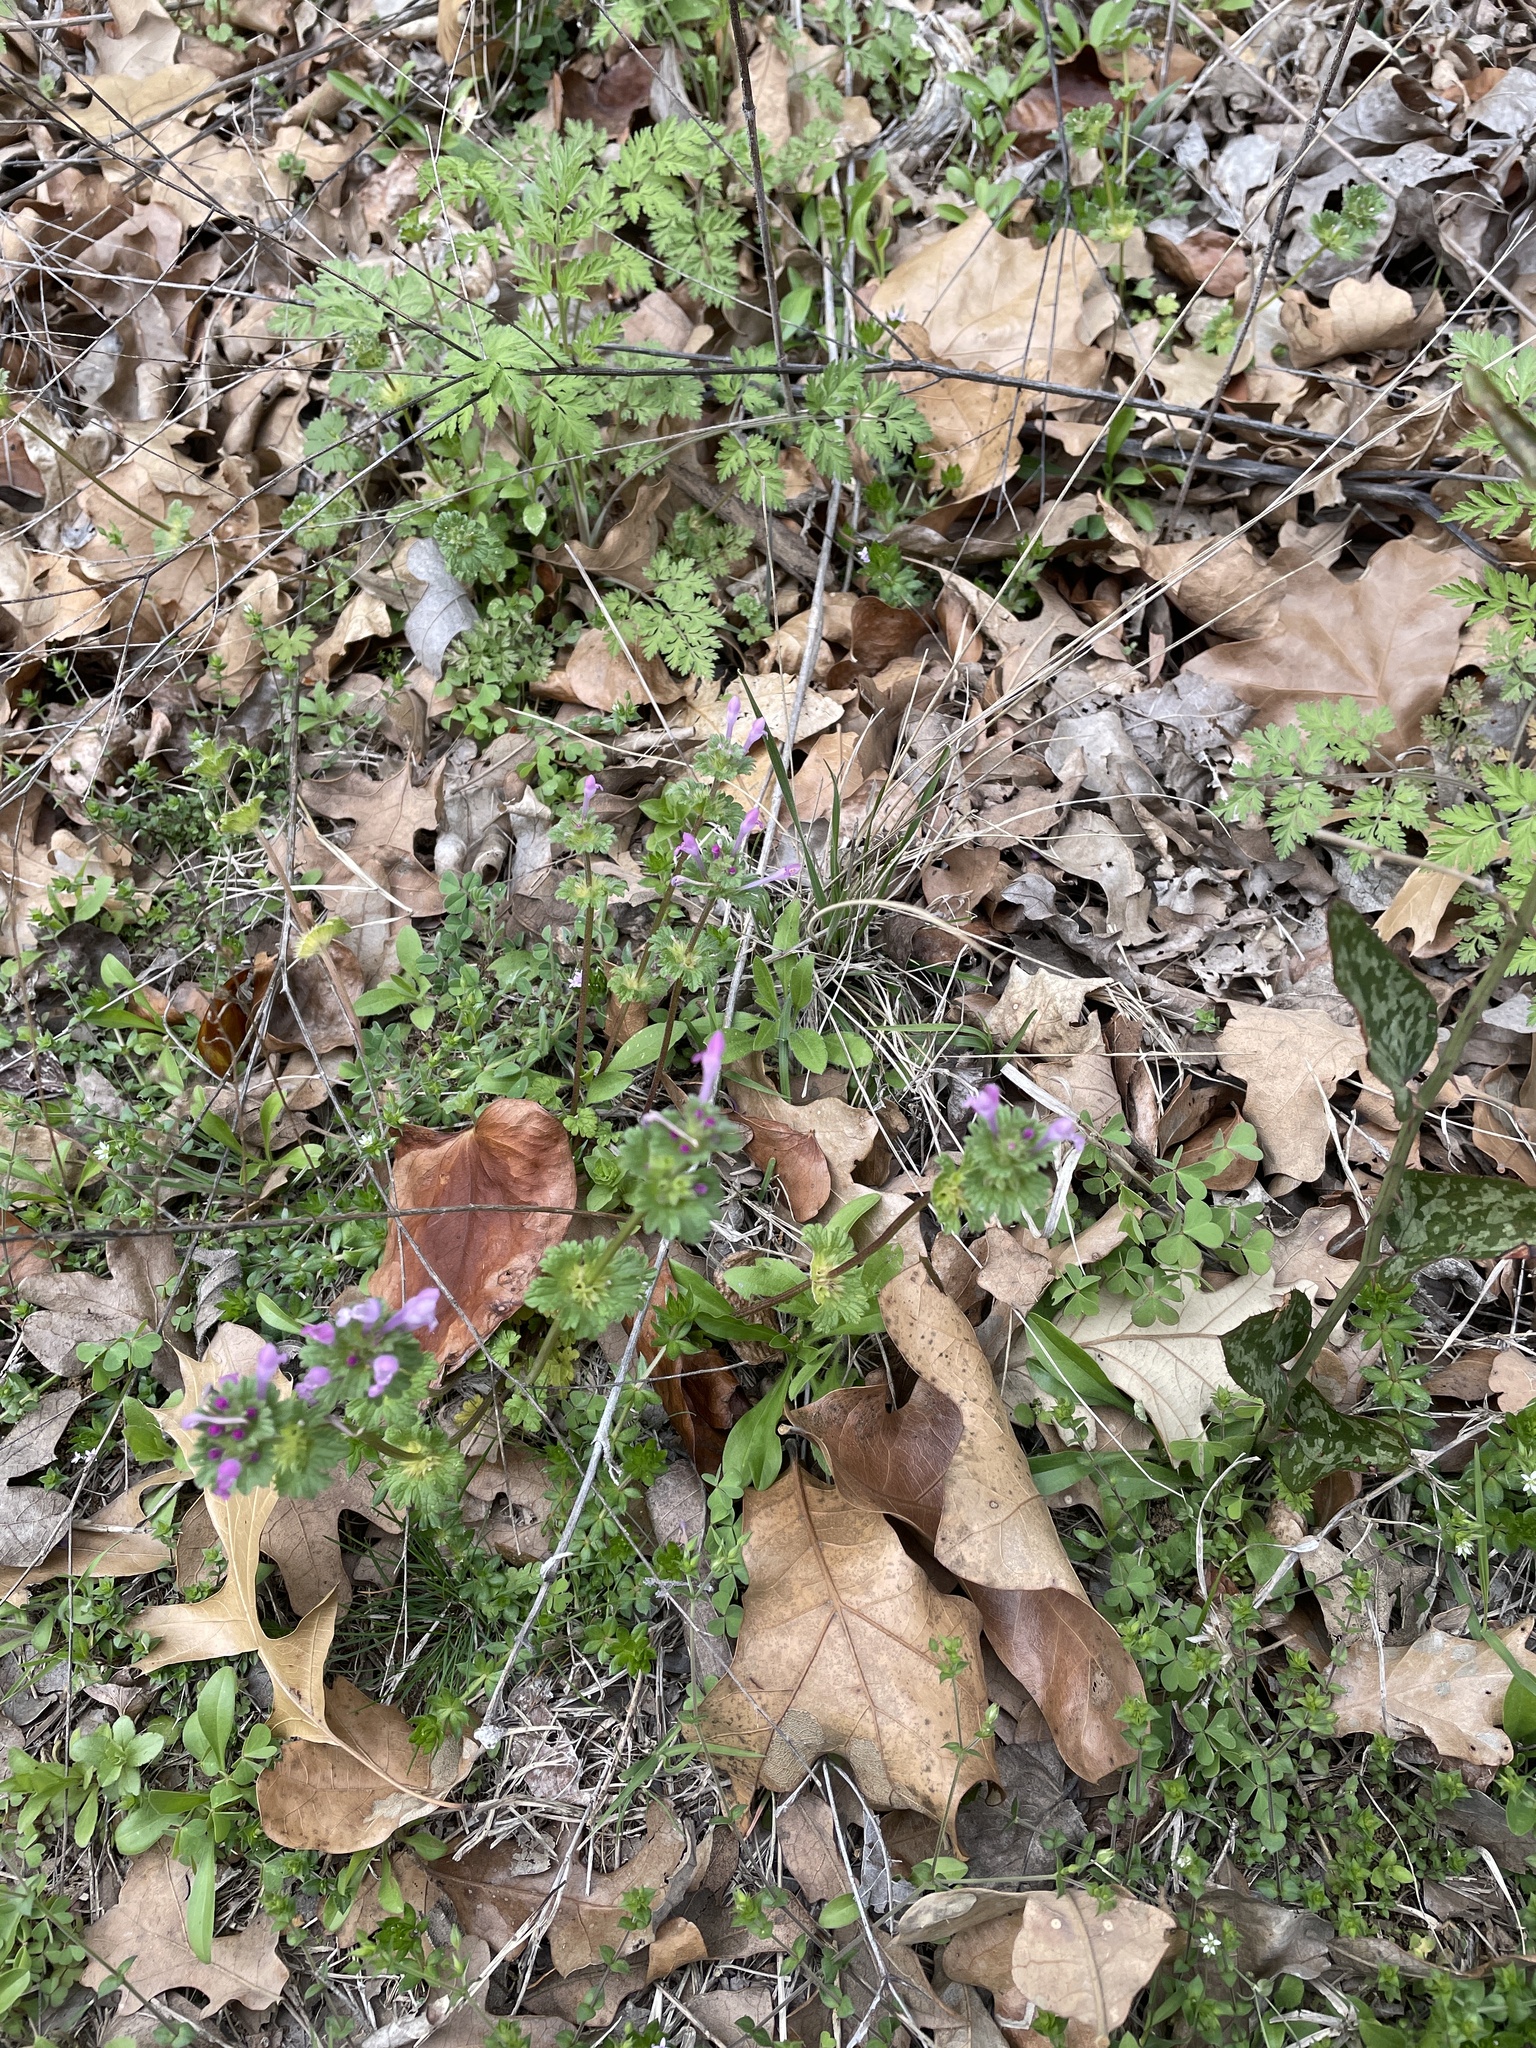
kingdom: Plantae
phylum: Tracheophyta
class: Magnoliopsida
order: Lamiales
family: Lamiaceae
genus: Lamium
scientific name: Lamium amplexicaule
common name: Henbit dead-nettle
